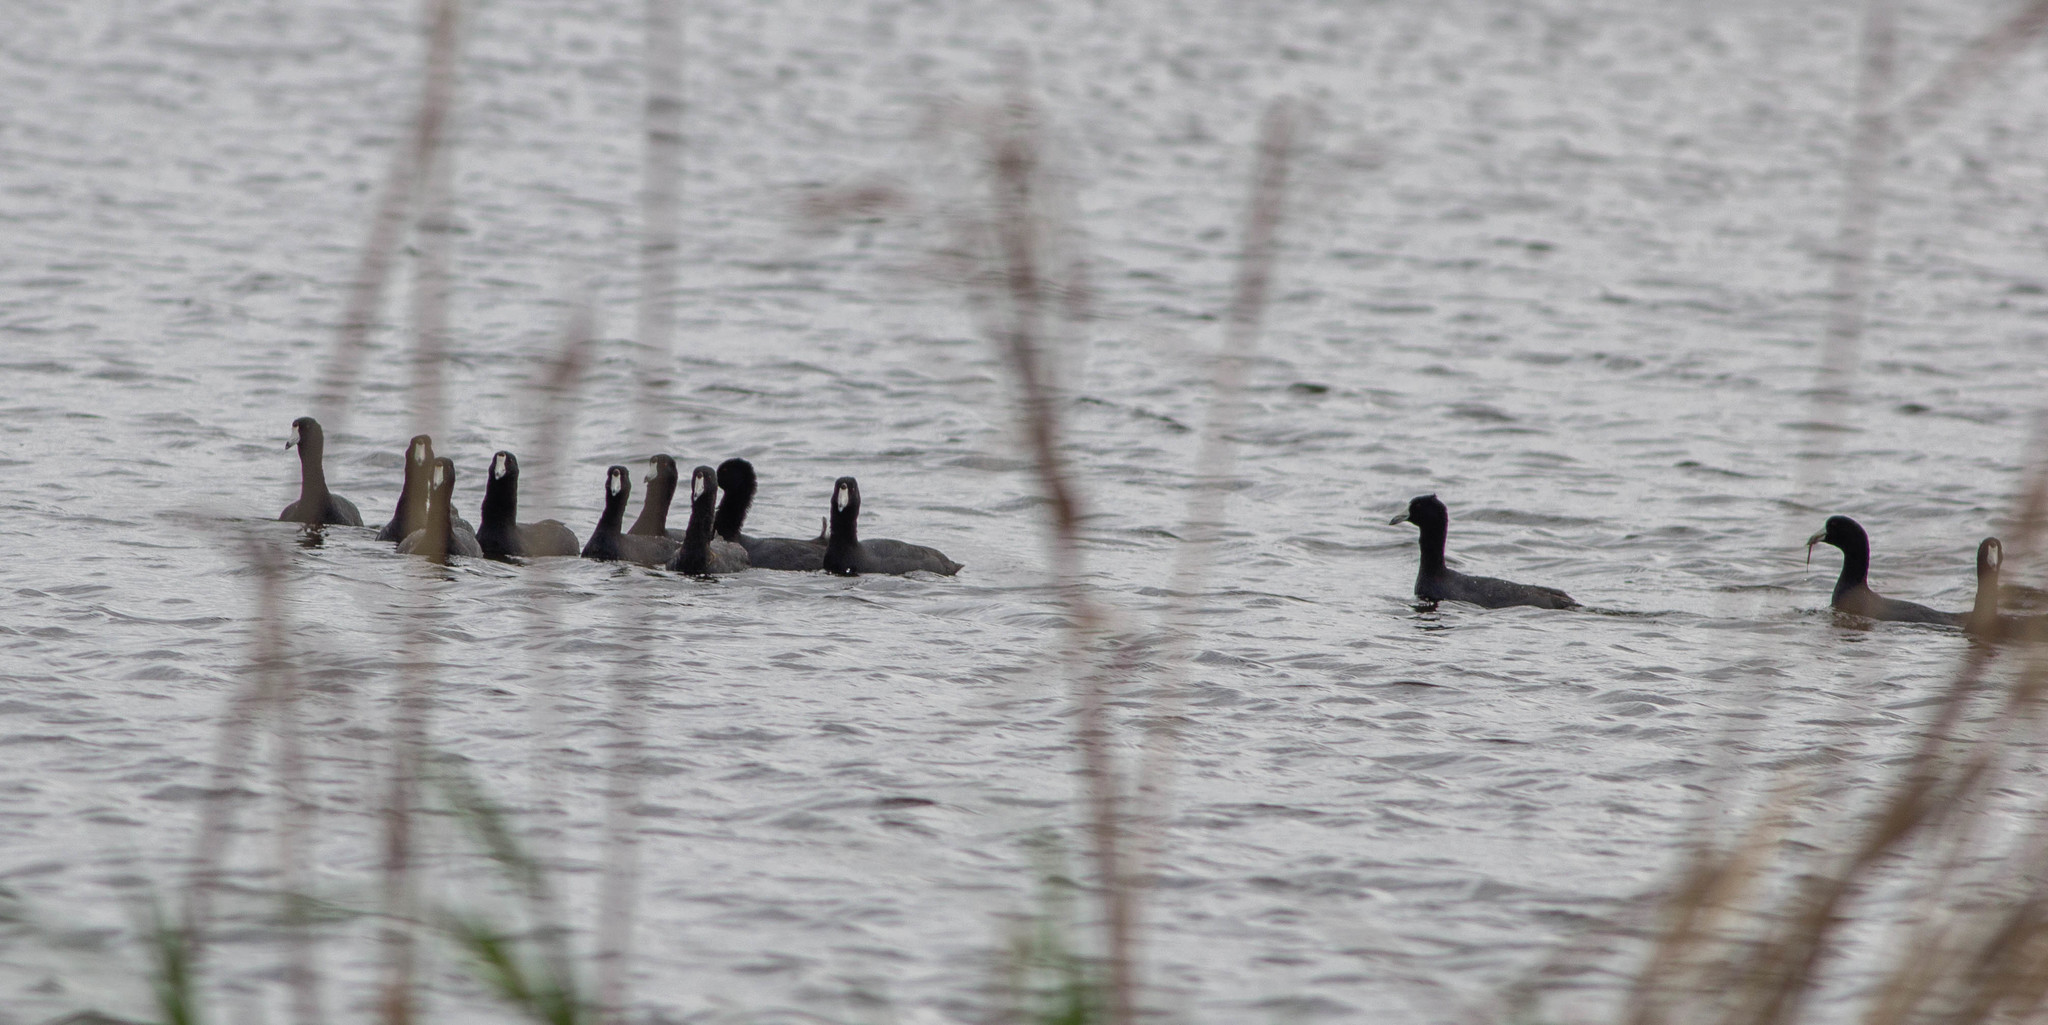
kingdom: Animalia
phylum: Chordata
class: Aves
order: Gruiformes
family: Rallidae
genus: Fulica
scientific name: Fulica americana
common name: American coot
